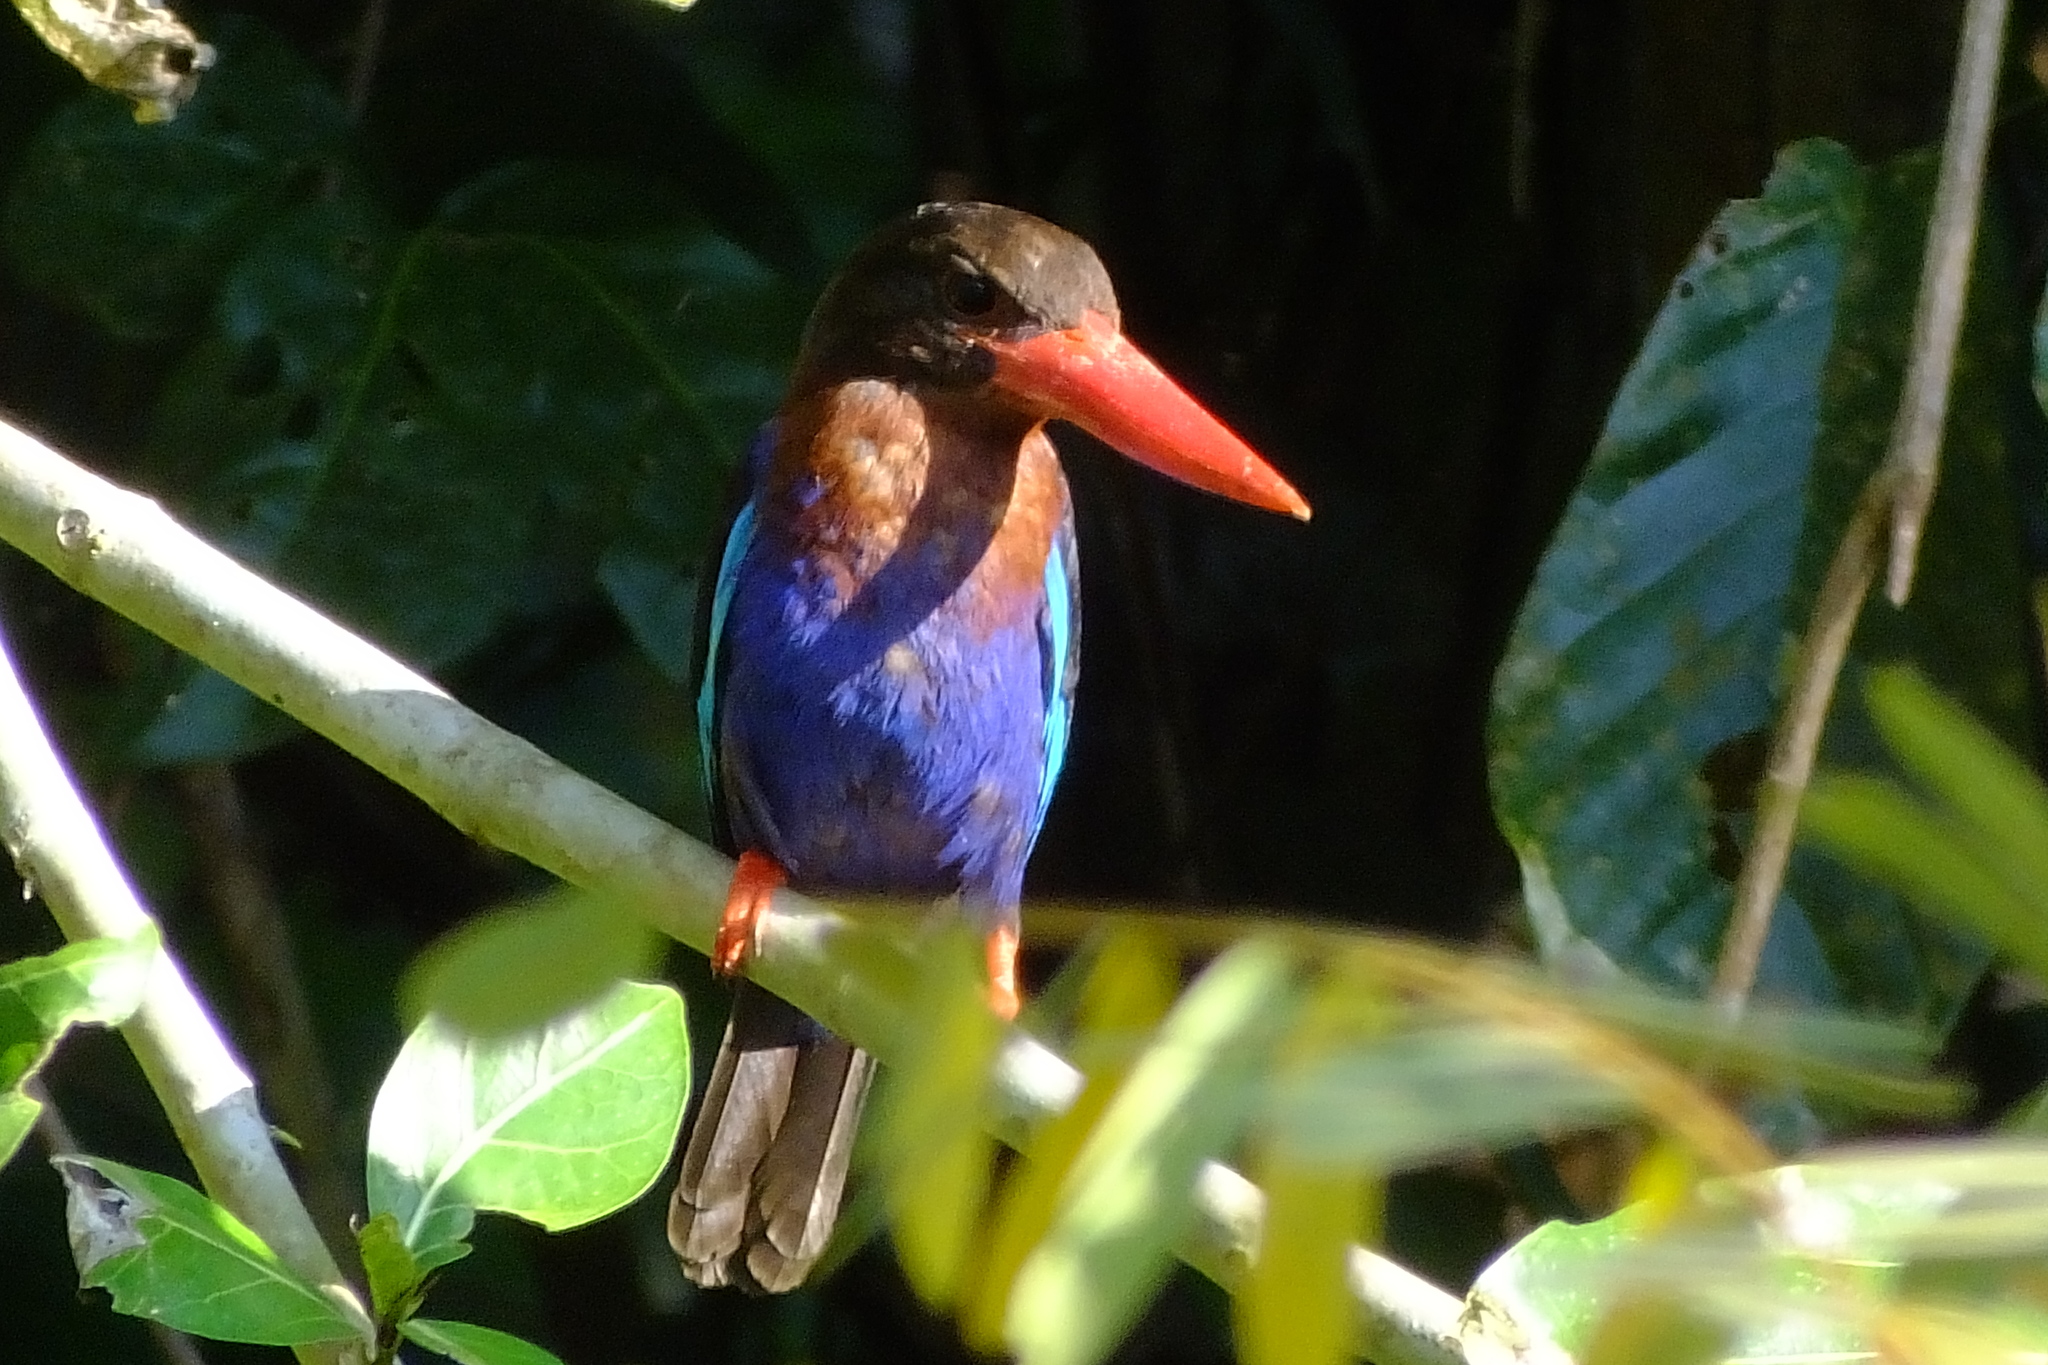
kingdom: Animalia
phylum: Chordata
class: Aves
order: Coraciiformes
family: Alcedinidae
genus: Halcyon
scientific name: Halcyon cyanoventris
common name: Javan kingfisher
